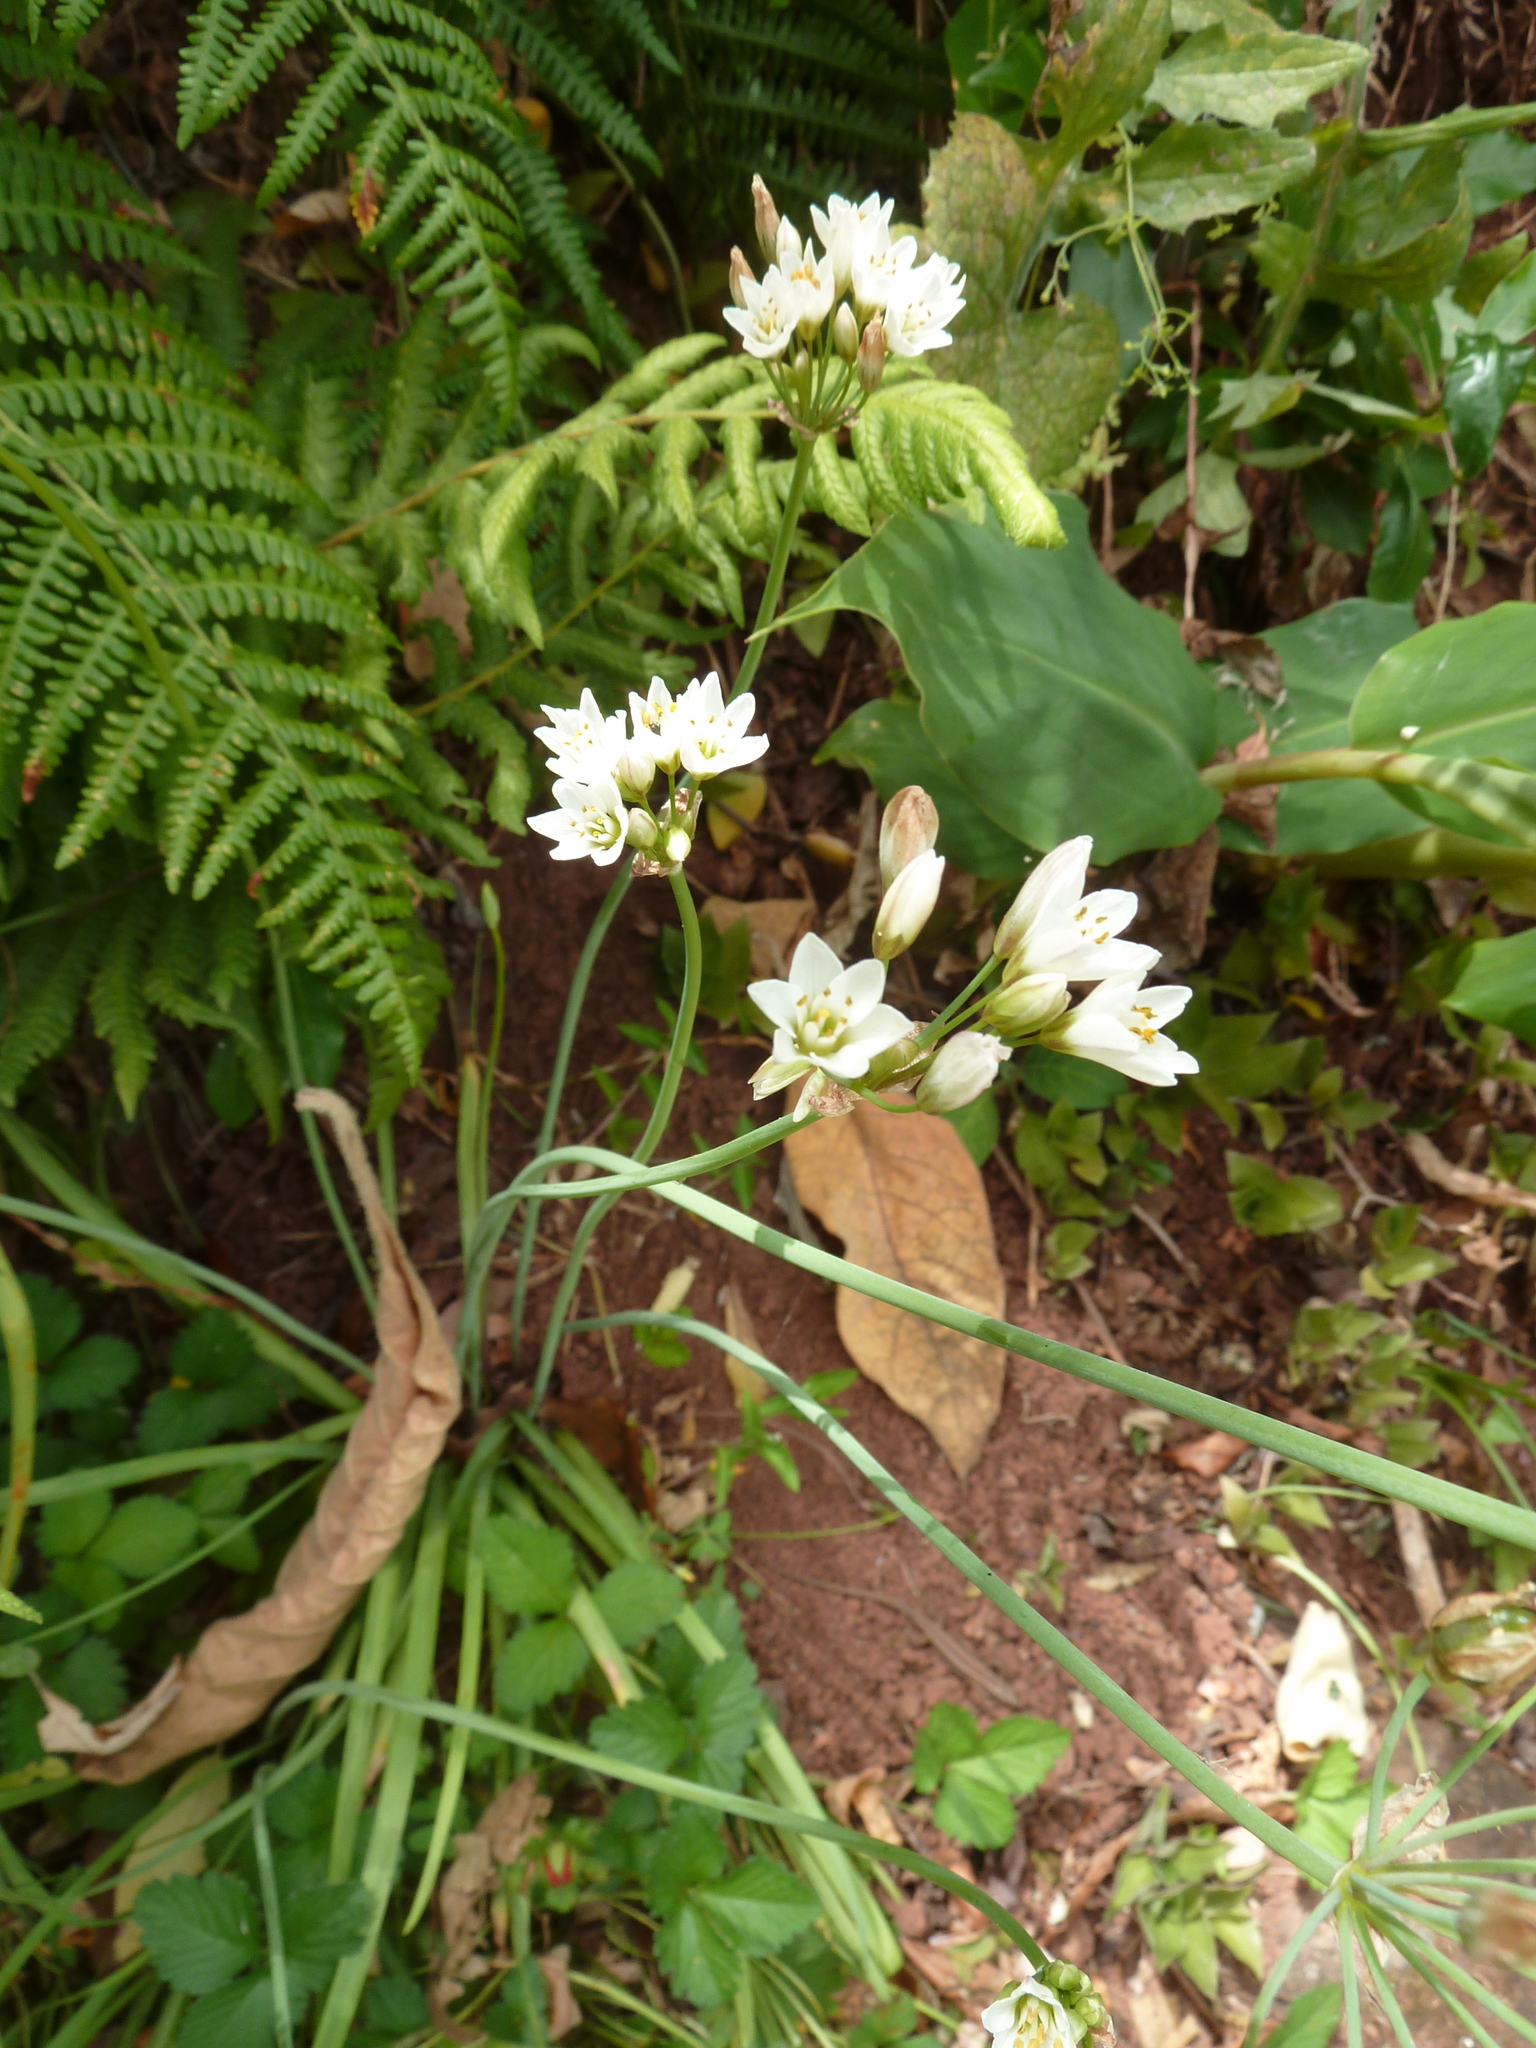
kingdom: Plantae
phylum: Tracheophyta
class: Liliopsida
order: Asparagales
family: Amaryllidaceae
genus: Nothoscordum
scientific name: Nothoscordum gracile
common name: Slender false garlic
